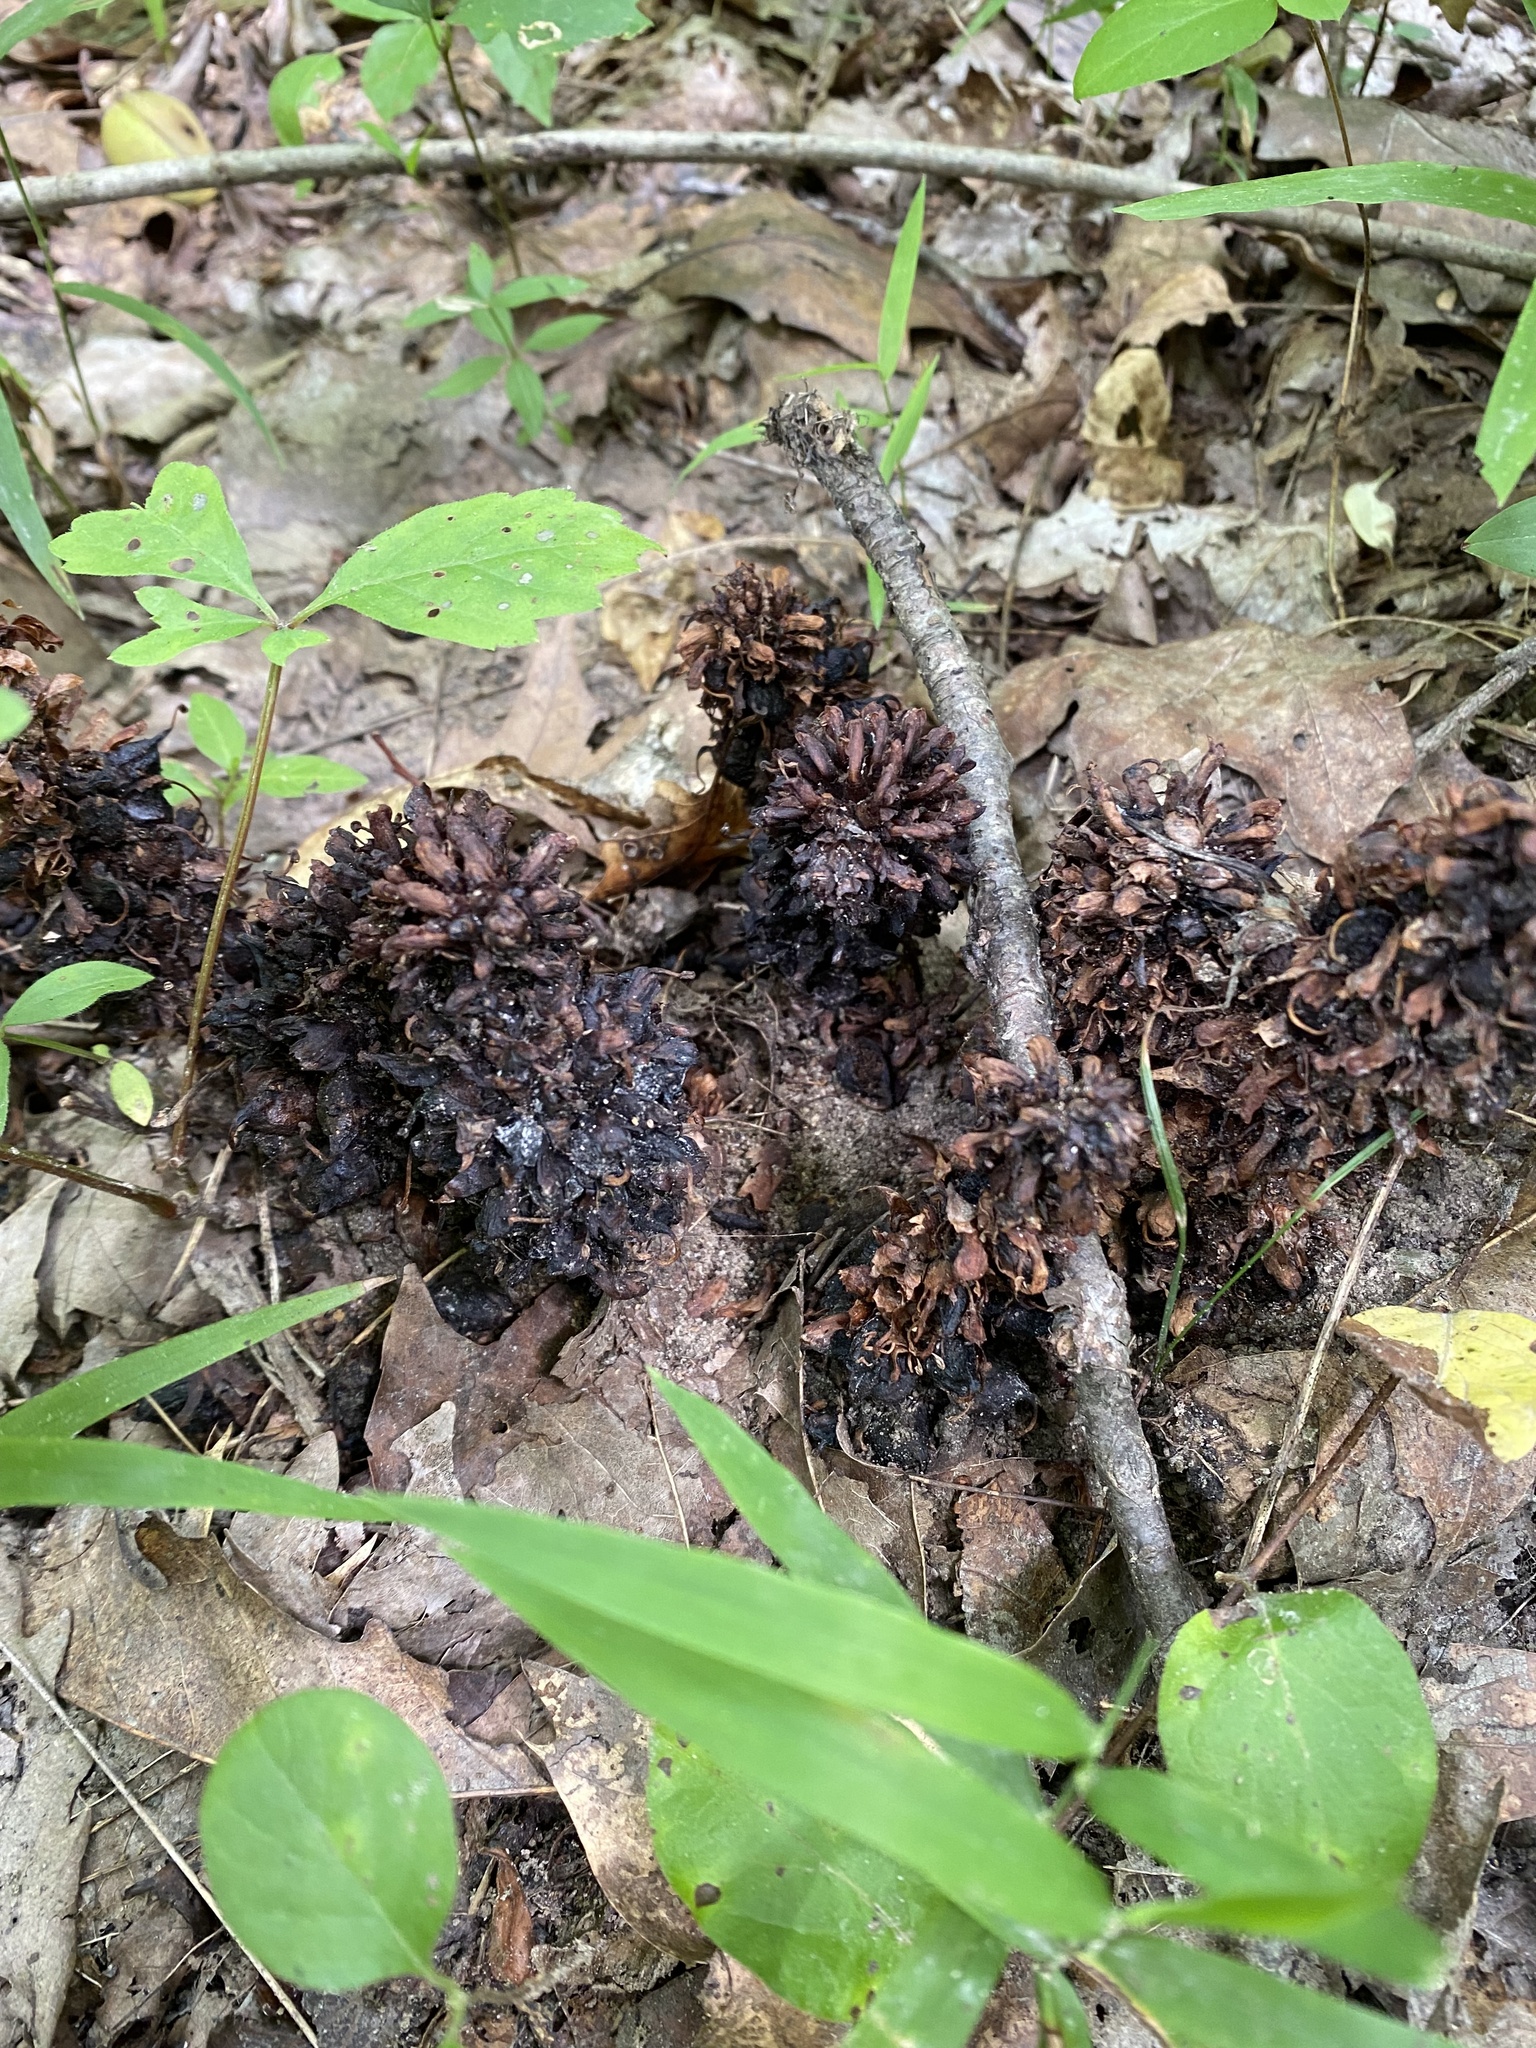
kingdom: Plantae
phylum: Tracheophyta
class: Magnoliopsida
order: Lamiales
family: Orobanchaceae
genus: Conopholis
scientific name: Conopholis americana
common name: American cancer-root
